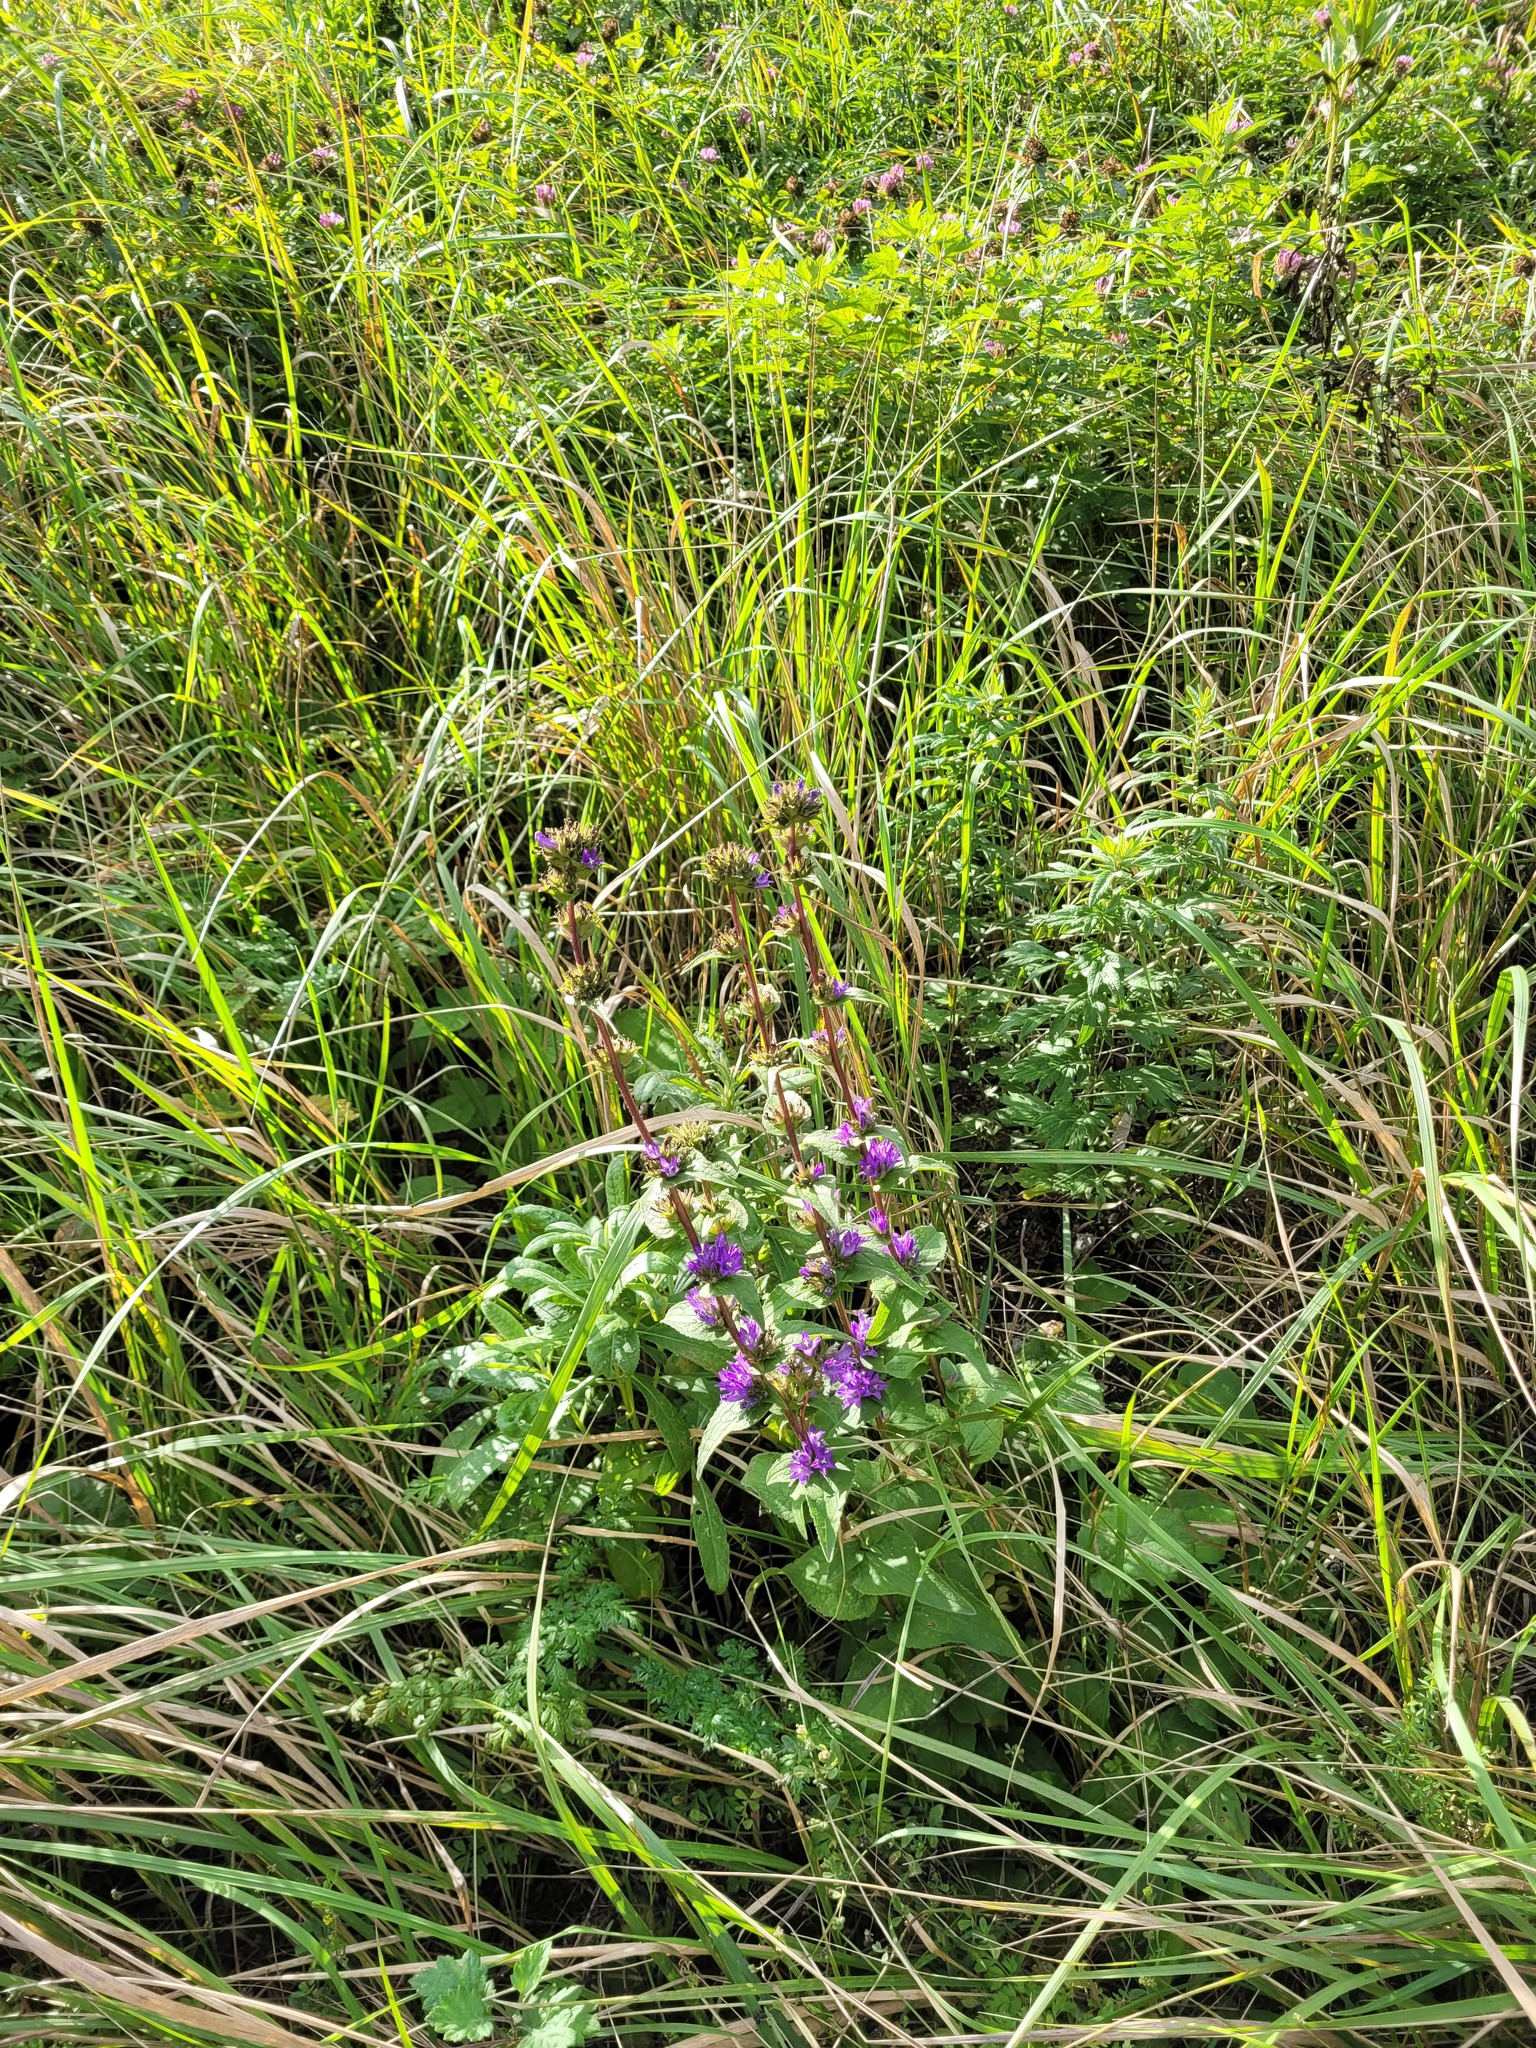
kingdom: Plantae
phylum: Tracheophyta
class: Magnoliopsida
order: Asterales
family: Campanulaceae
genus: Campanula
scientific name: Campanula glomerata
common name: Clustered bellflower
